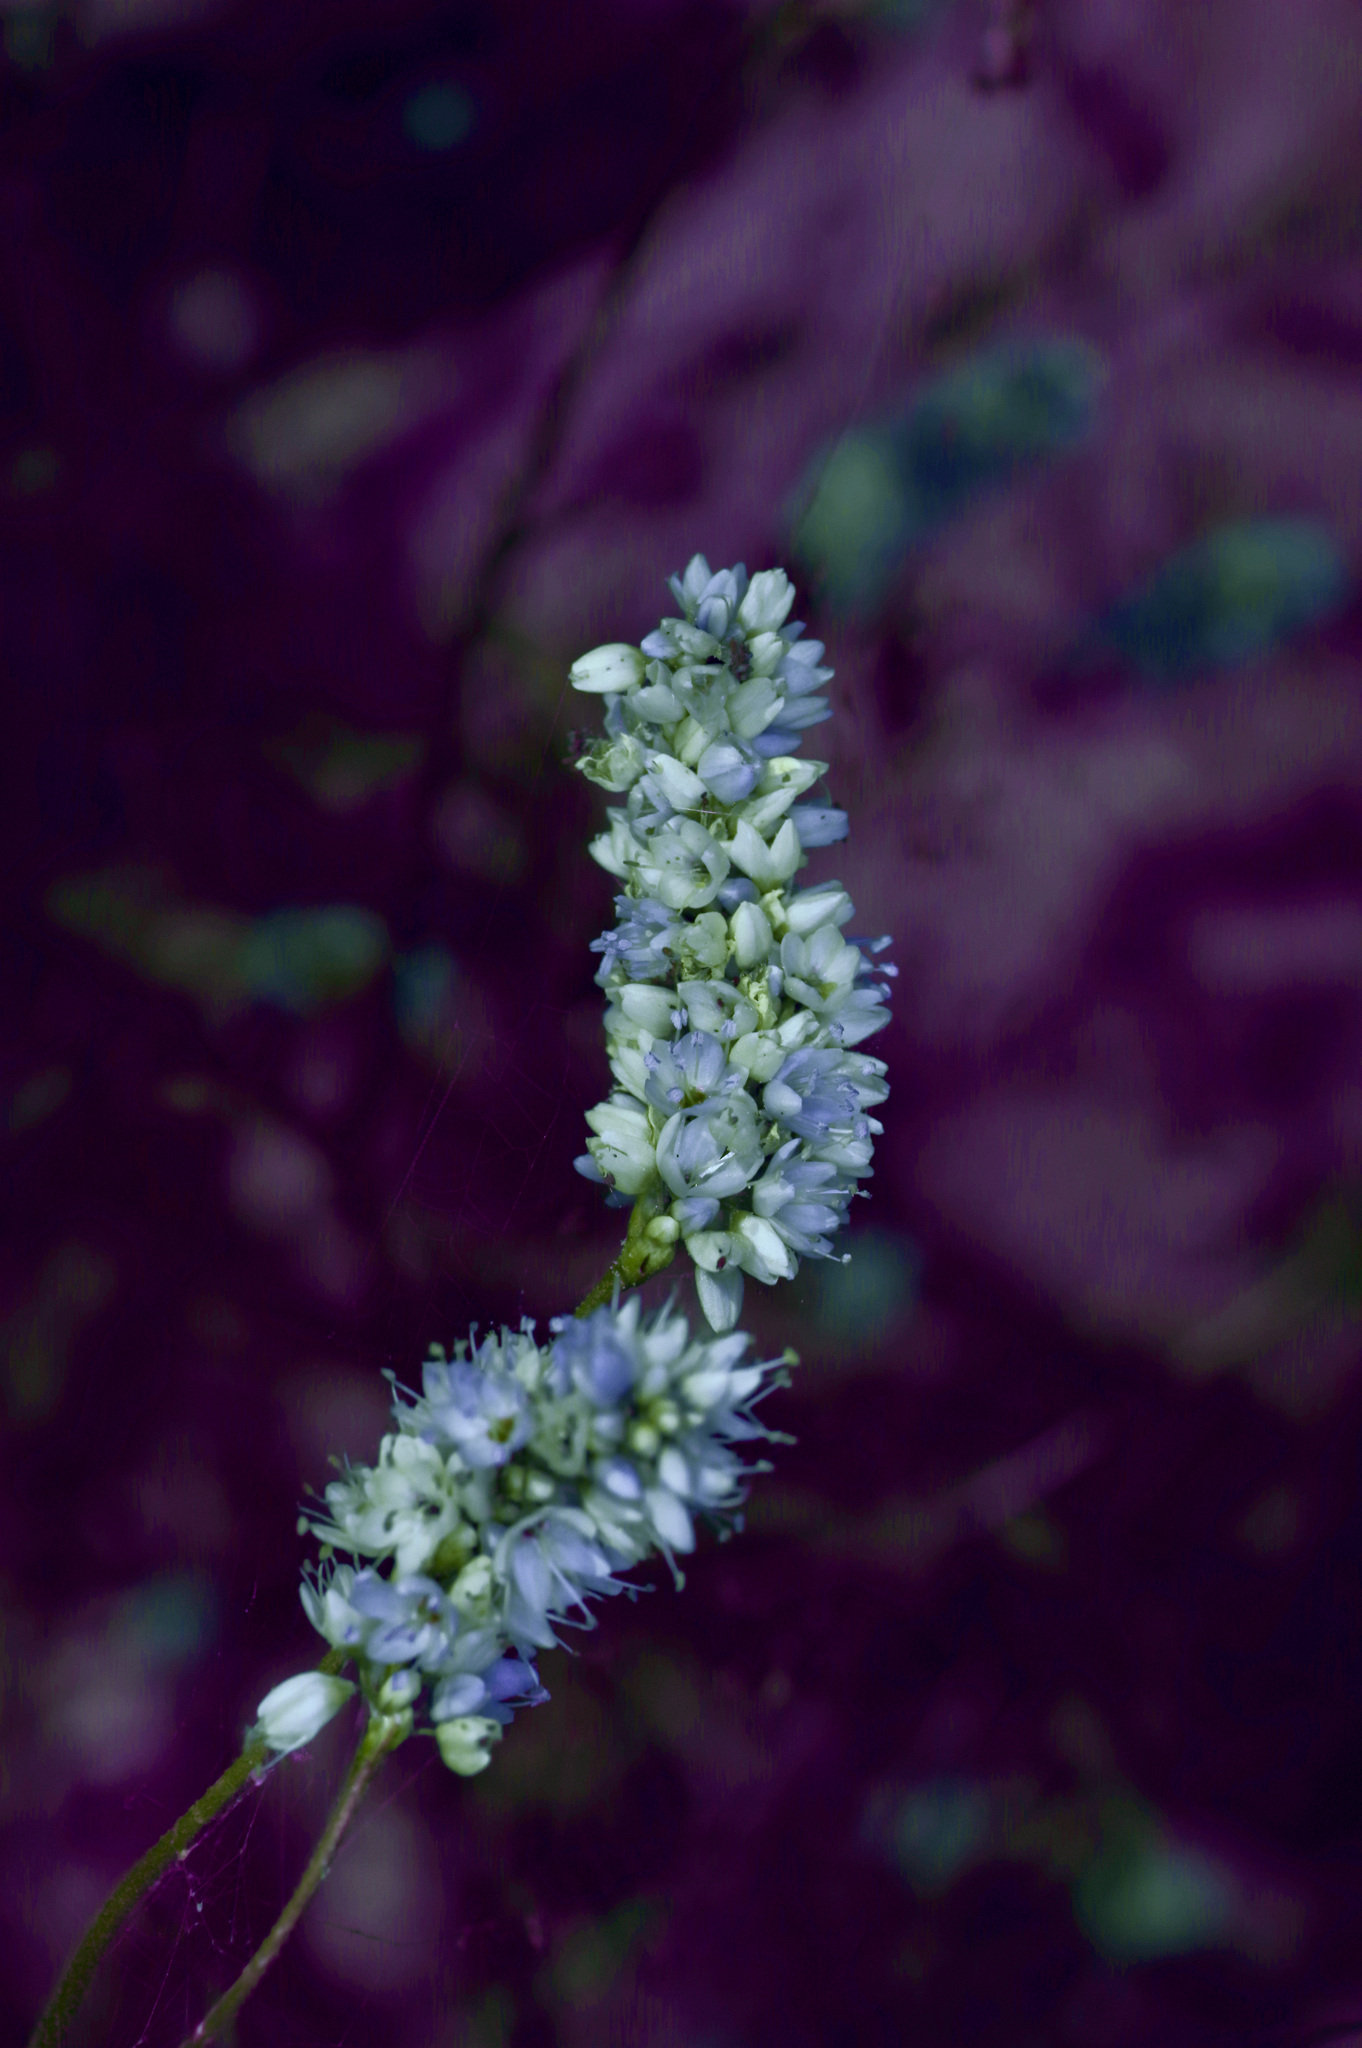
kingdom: Plantae
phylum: Tracheophyta
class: Magnoliopsida
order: Caryophyllales
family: Polygonaceae
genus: Persicaria
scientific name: Persicaria bicornis
